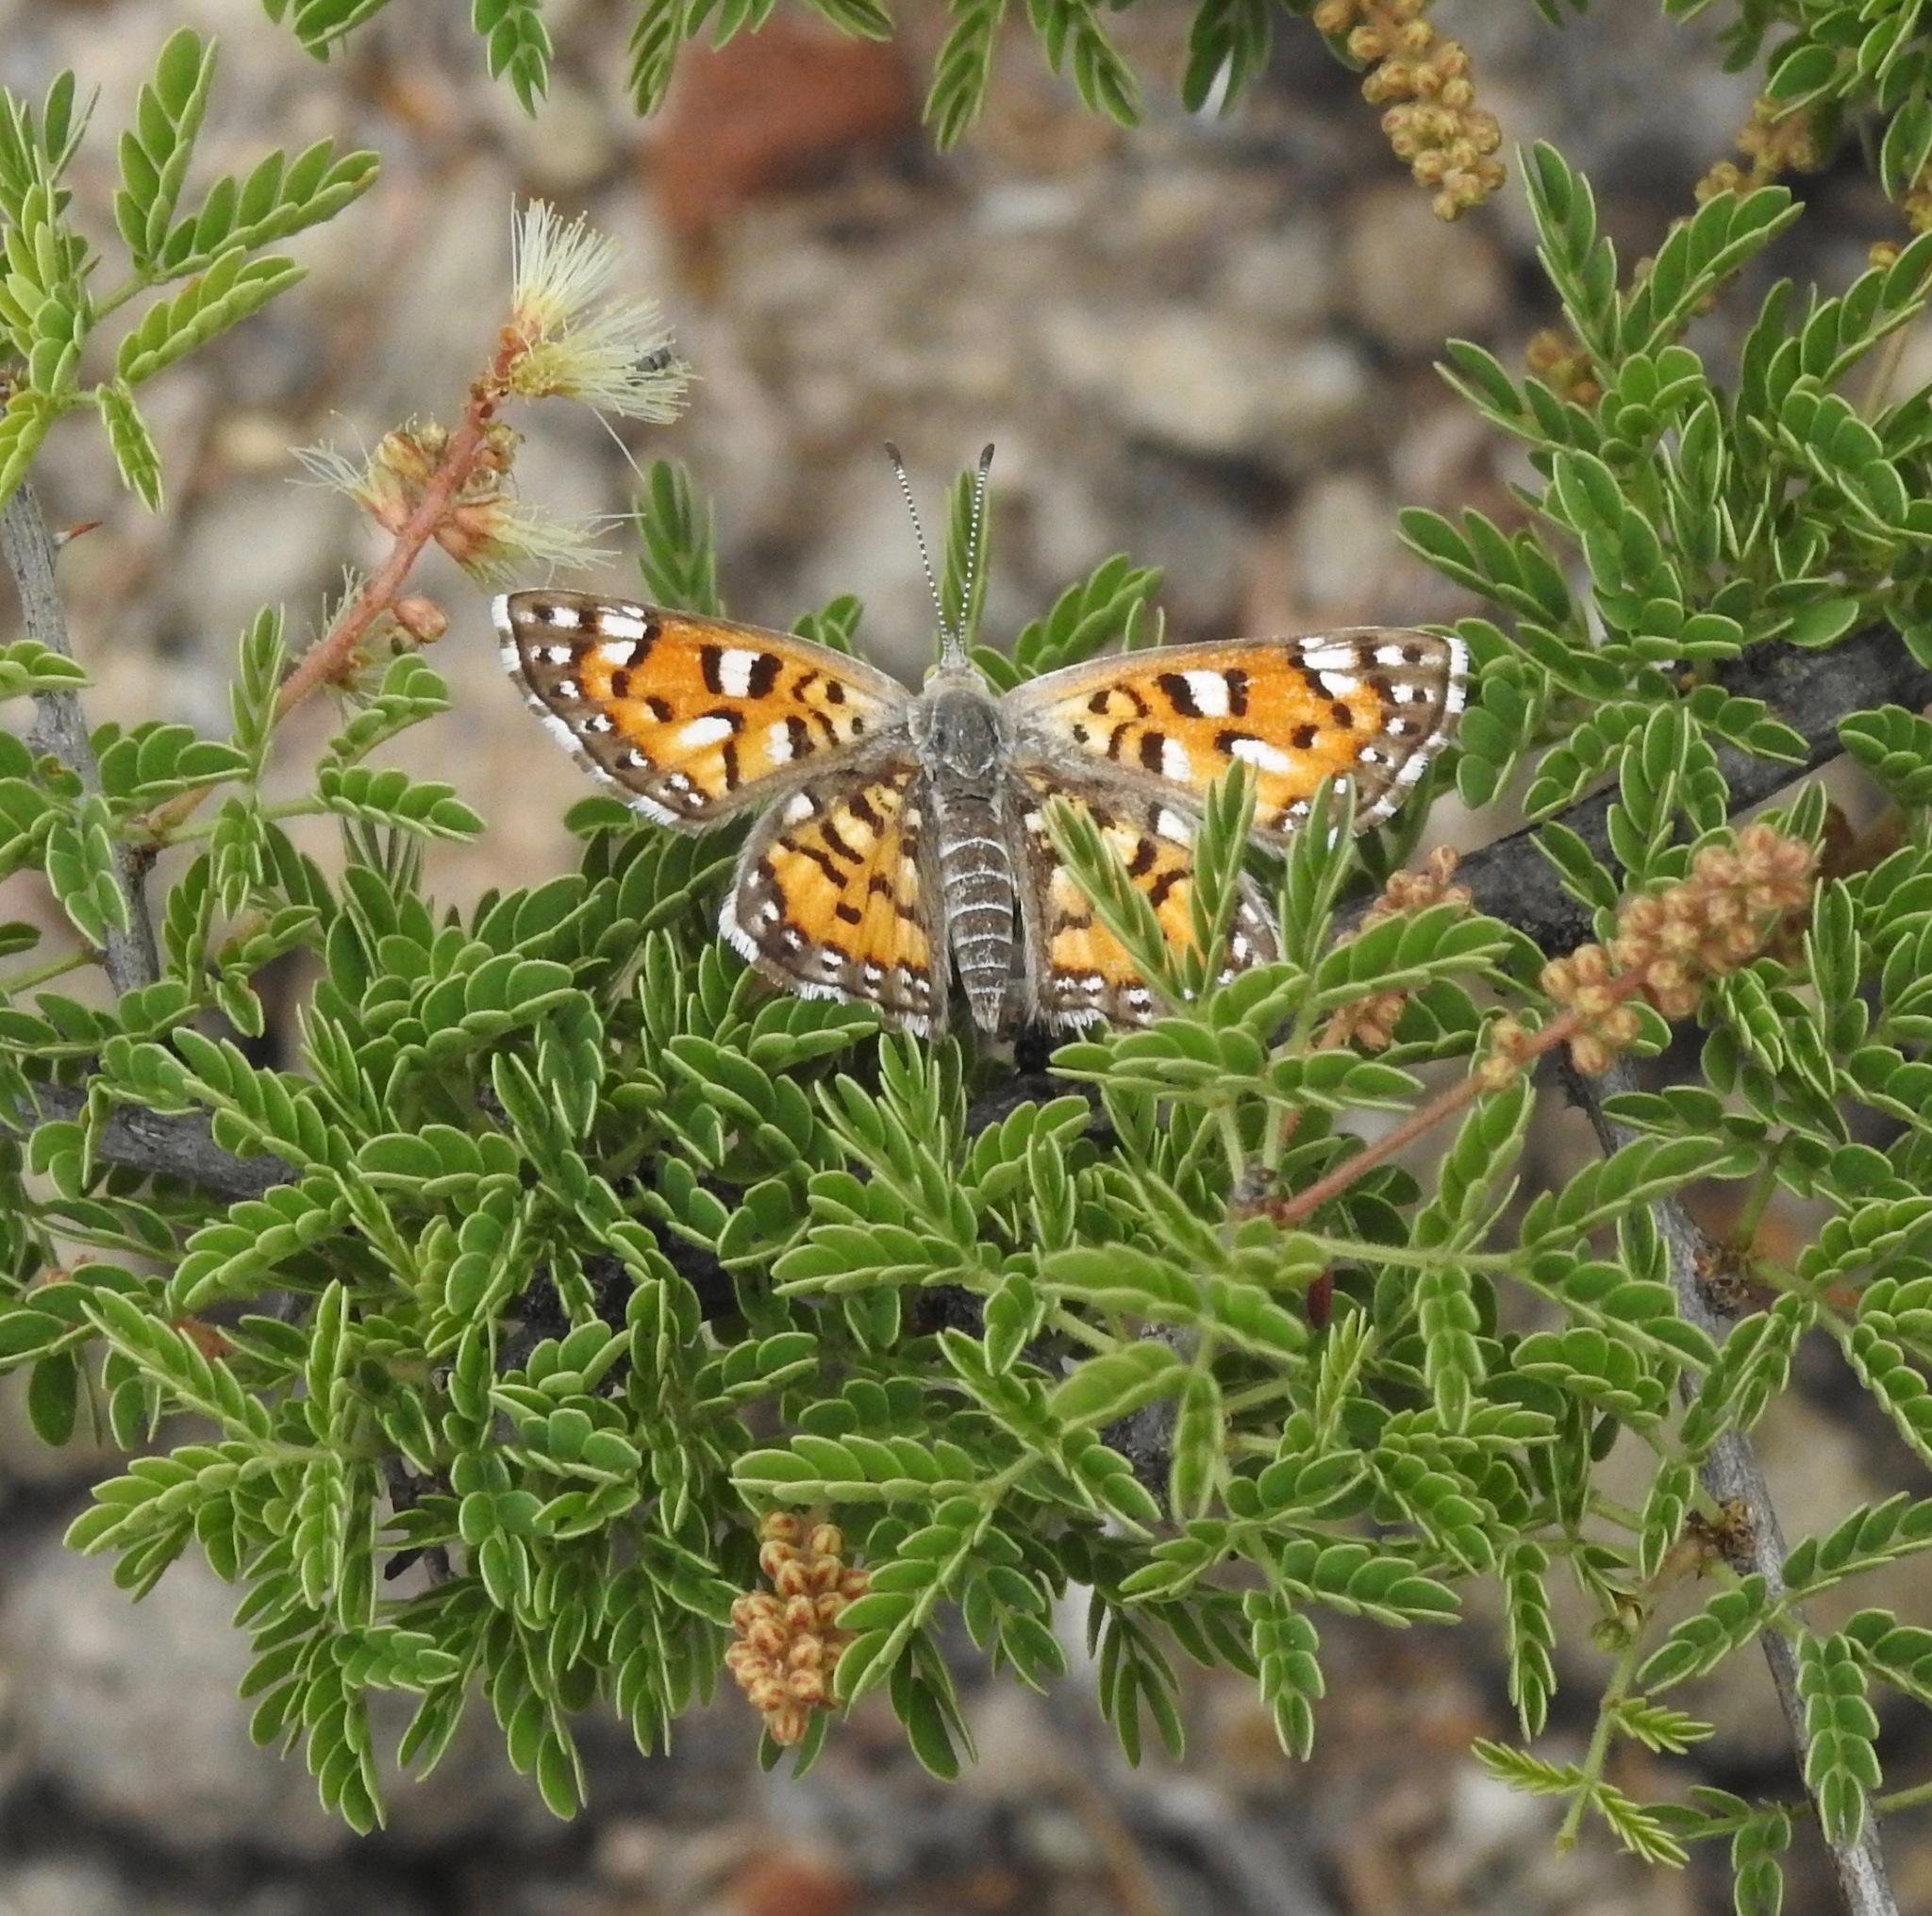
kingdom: Animalia
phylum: Arthropoda
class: Insecta
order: Lepidoptera
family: Riodinidae
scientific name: Riodinidae
